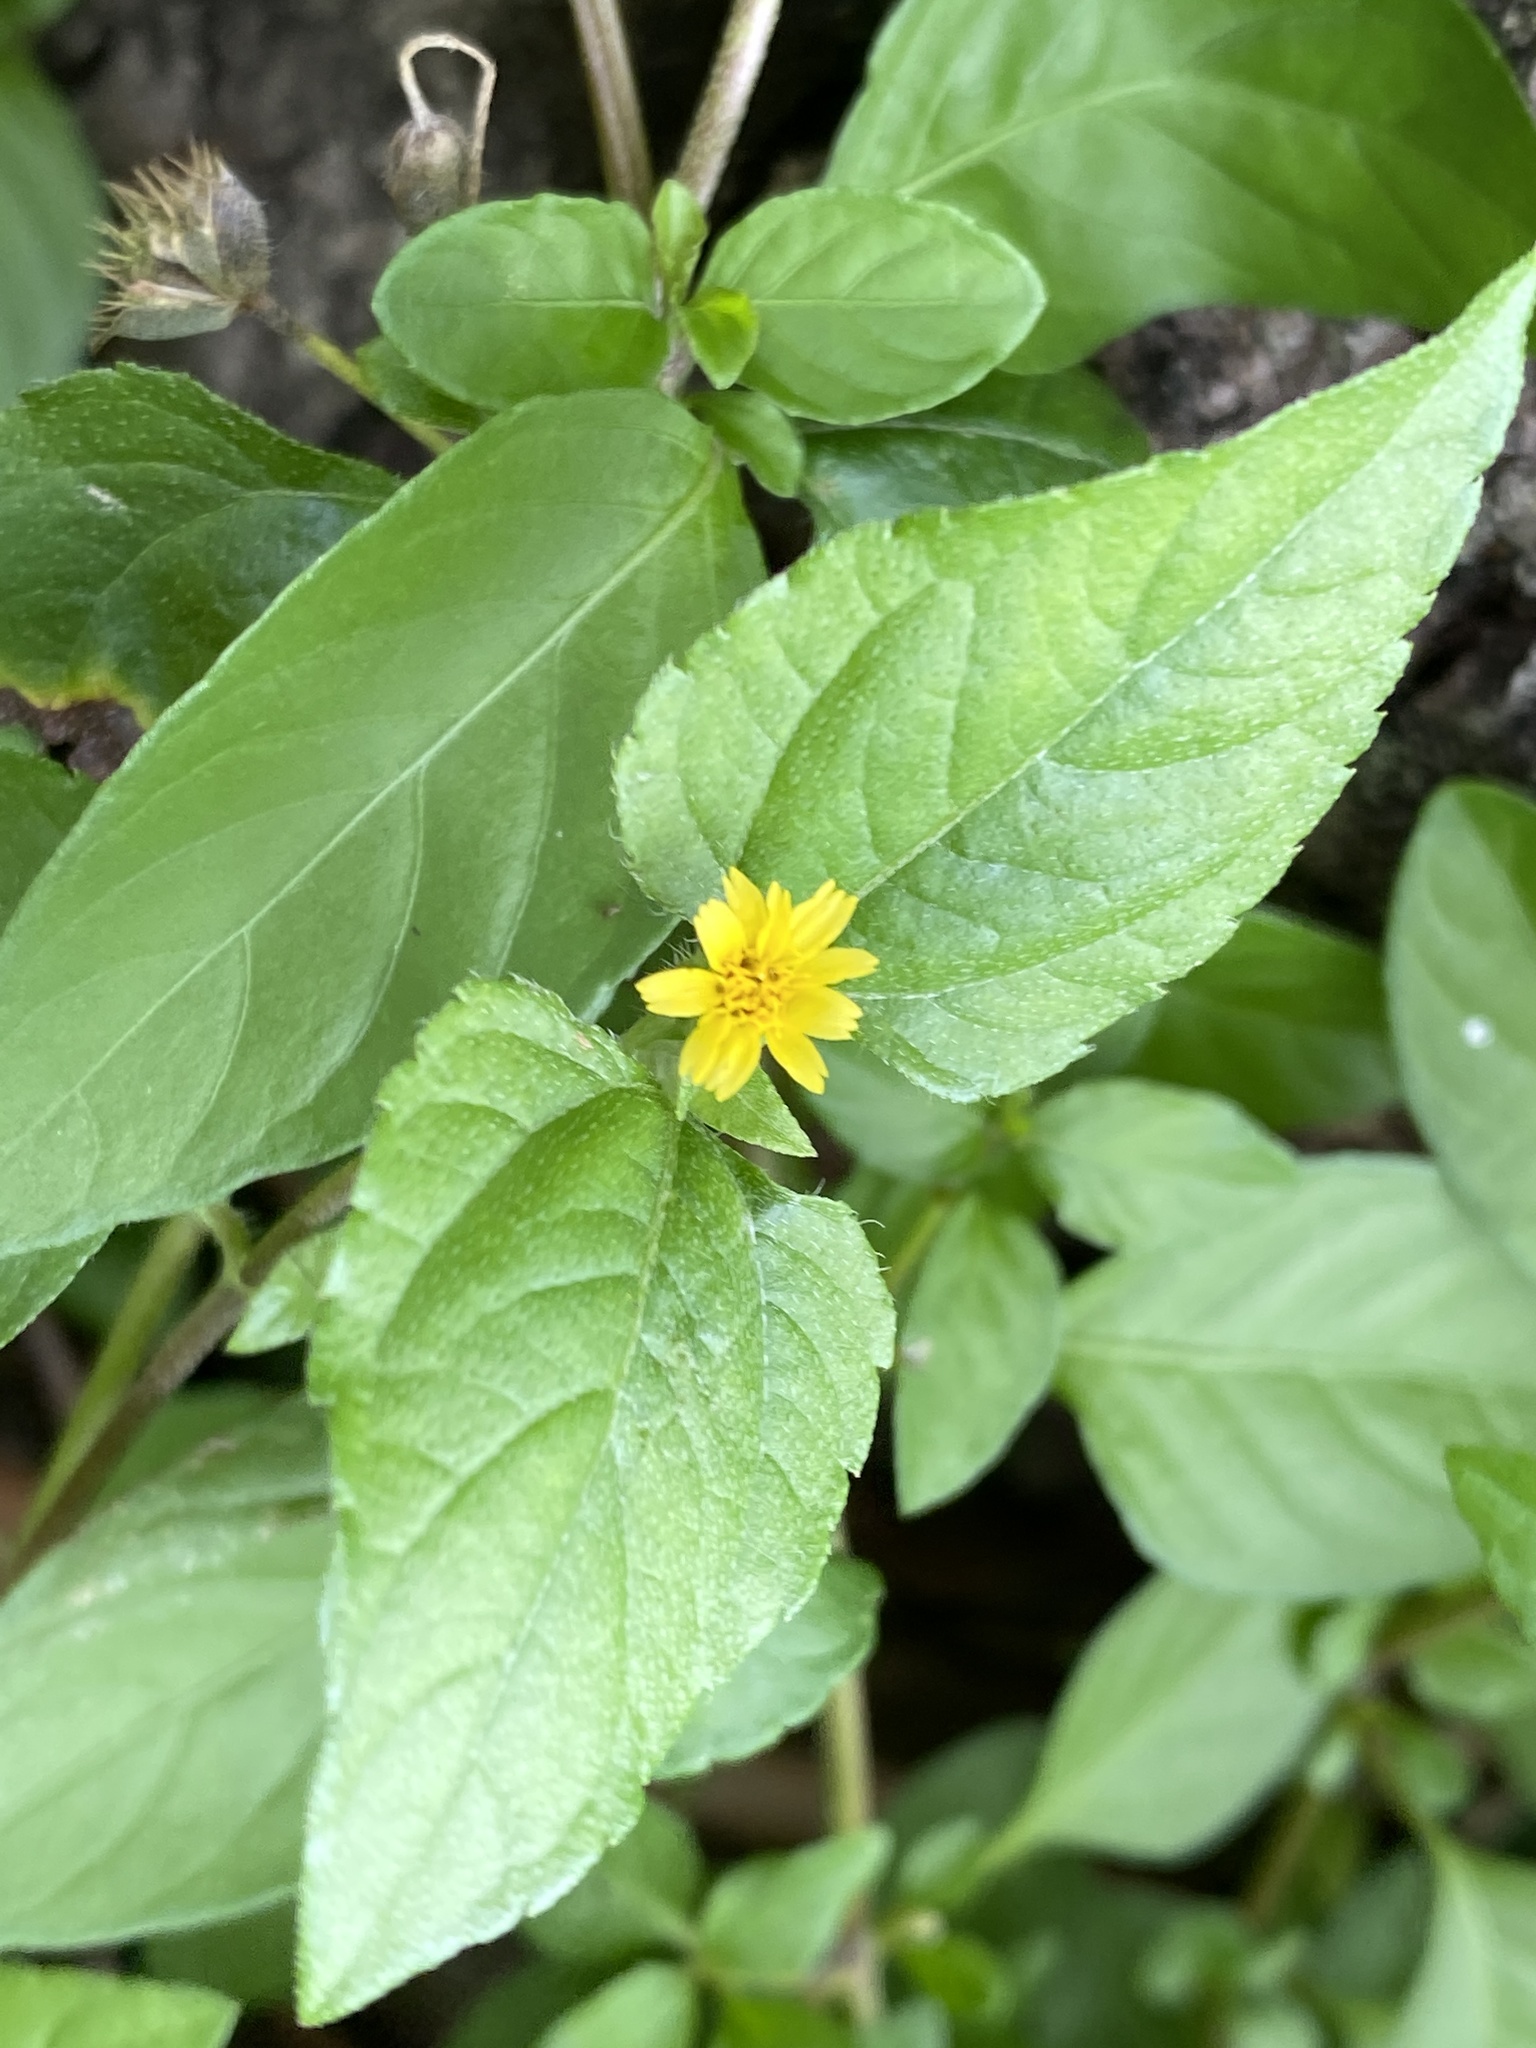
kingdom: Plantae
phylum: Tracheophyta
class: Magnoliopsida
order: Asterales
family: Asteraceae
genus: Calyptocarpus
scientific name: Calyptocarpus vialis
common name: Straggler daisy
